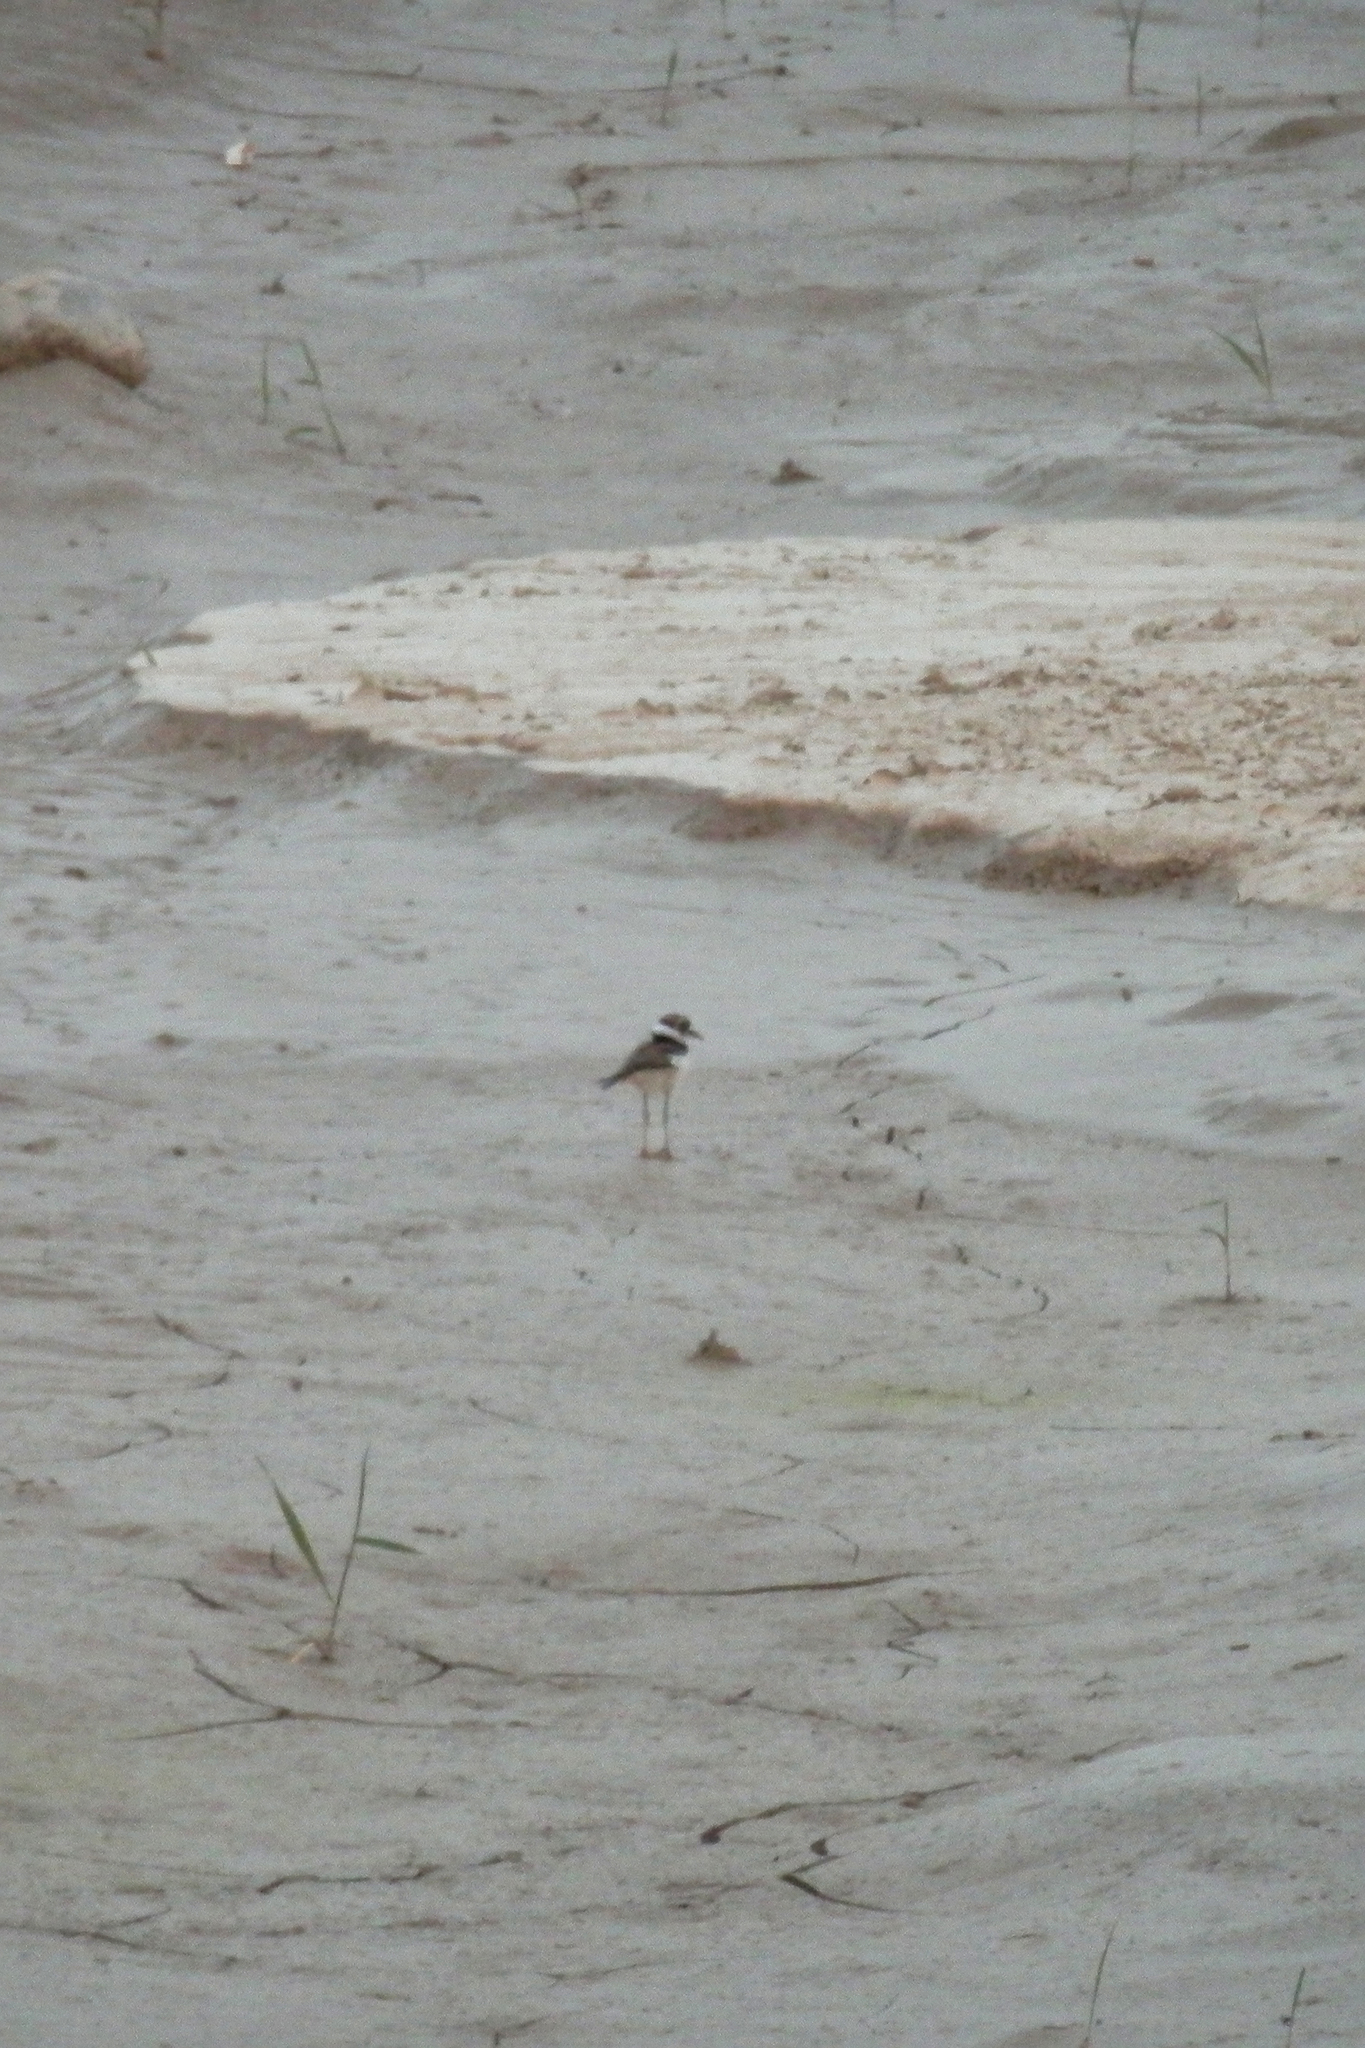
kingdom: Animalia
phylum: Chordata
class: Aves
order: Charadriiformes
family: Charadriidae
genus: Charadrius
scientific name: Charadrius vociferus
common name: Killdeer
